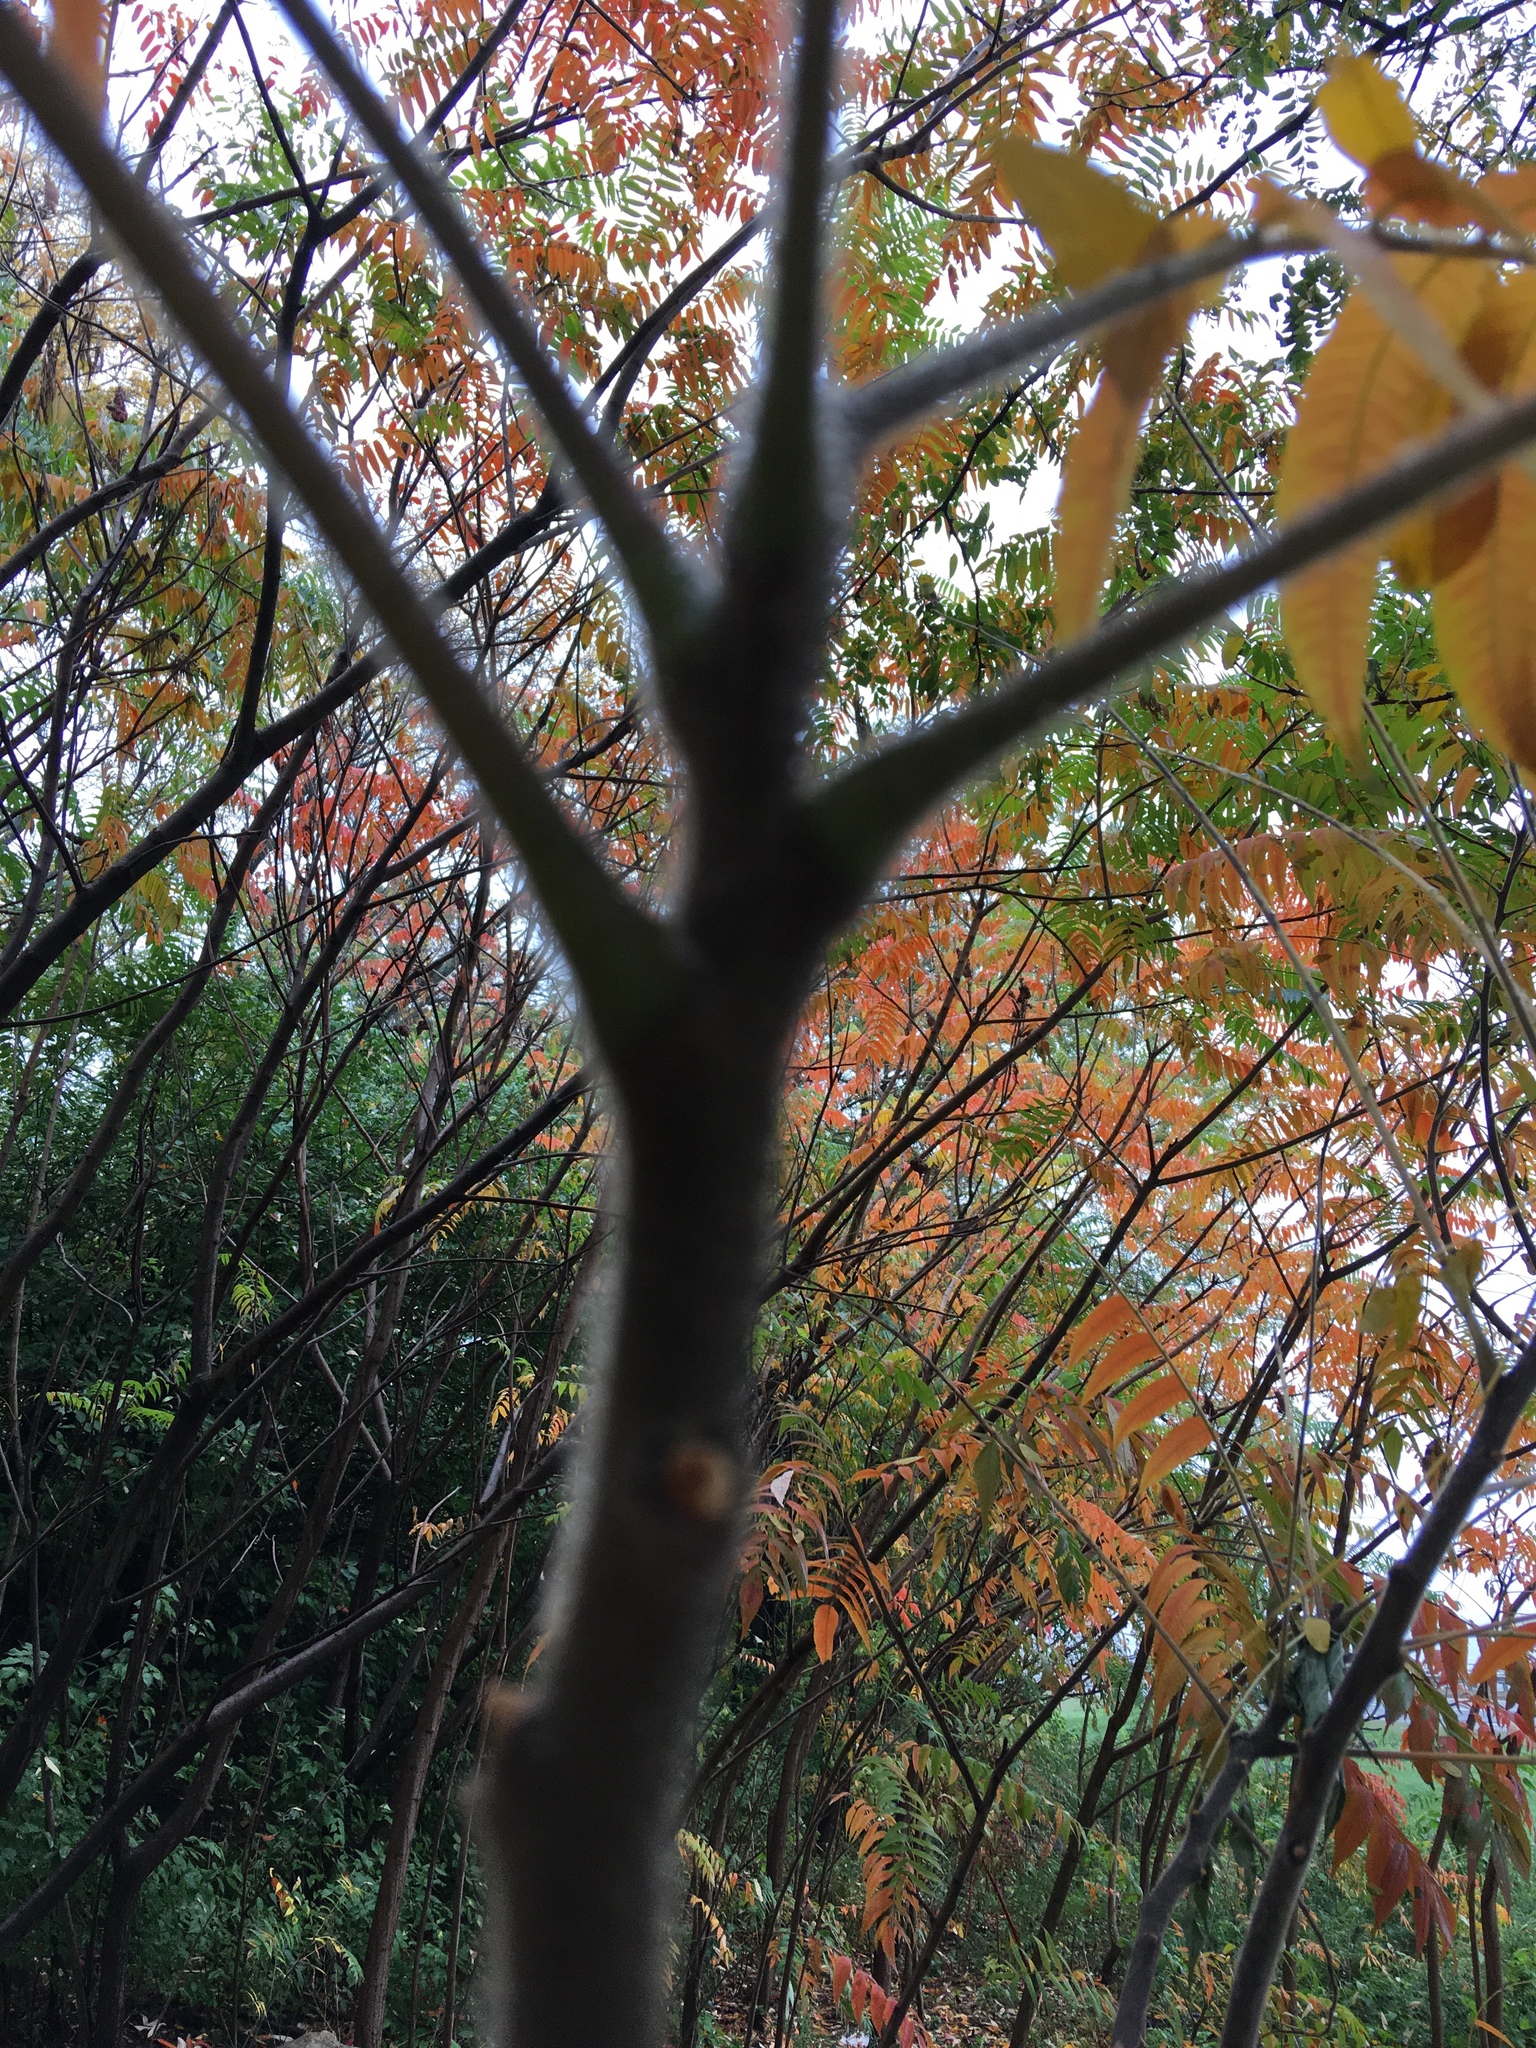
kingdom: Plantae
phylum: Tracheophyta
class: Magnoliopsida
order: Sapindales
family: Anacardiaceae
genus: Rhus
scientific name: Rhus typhina
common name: Staghorn sumac
